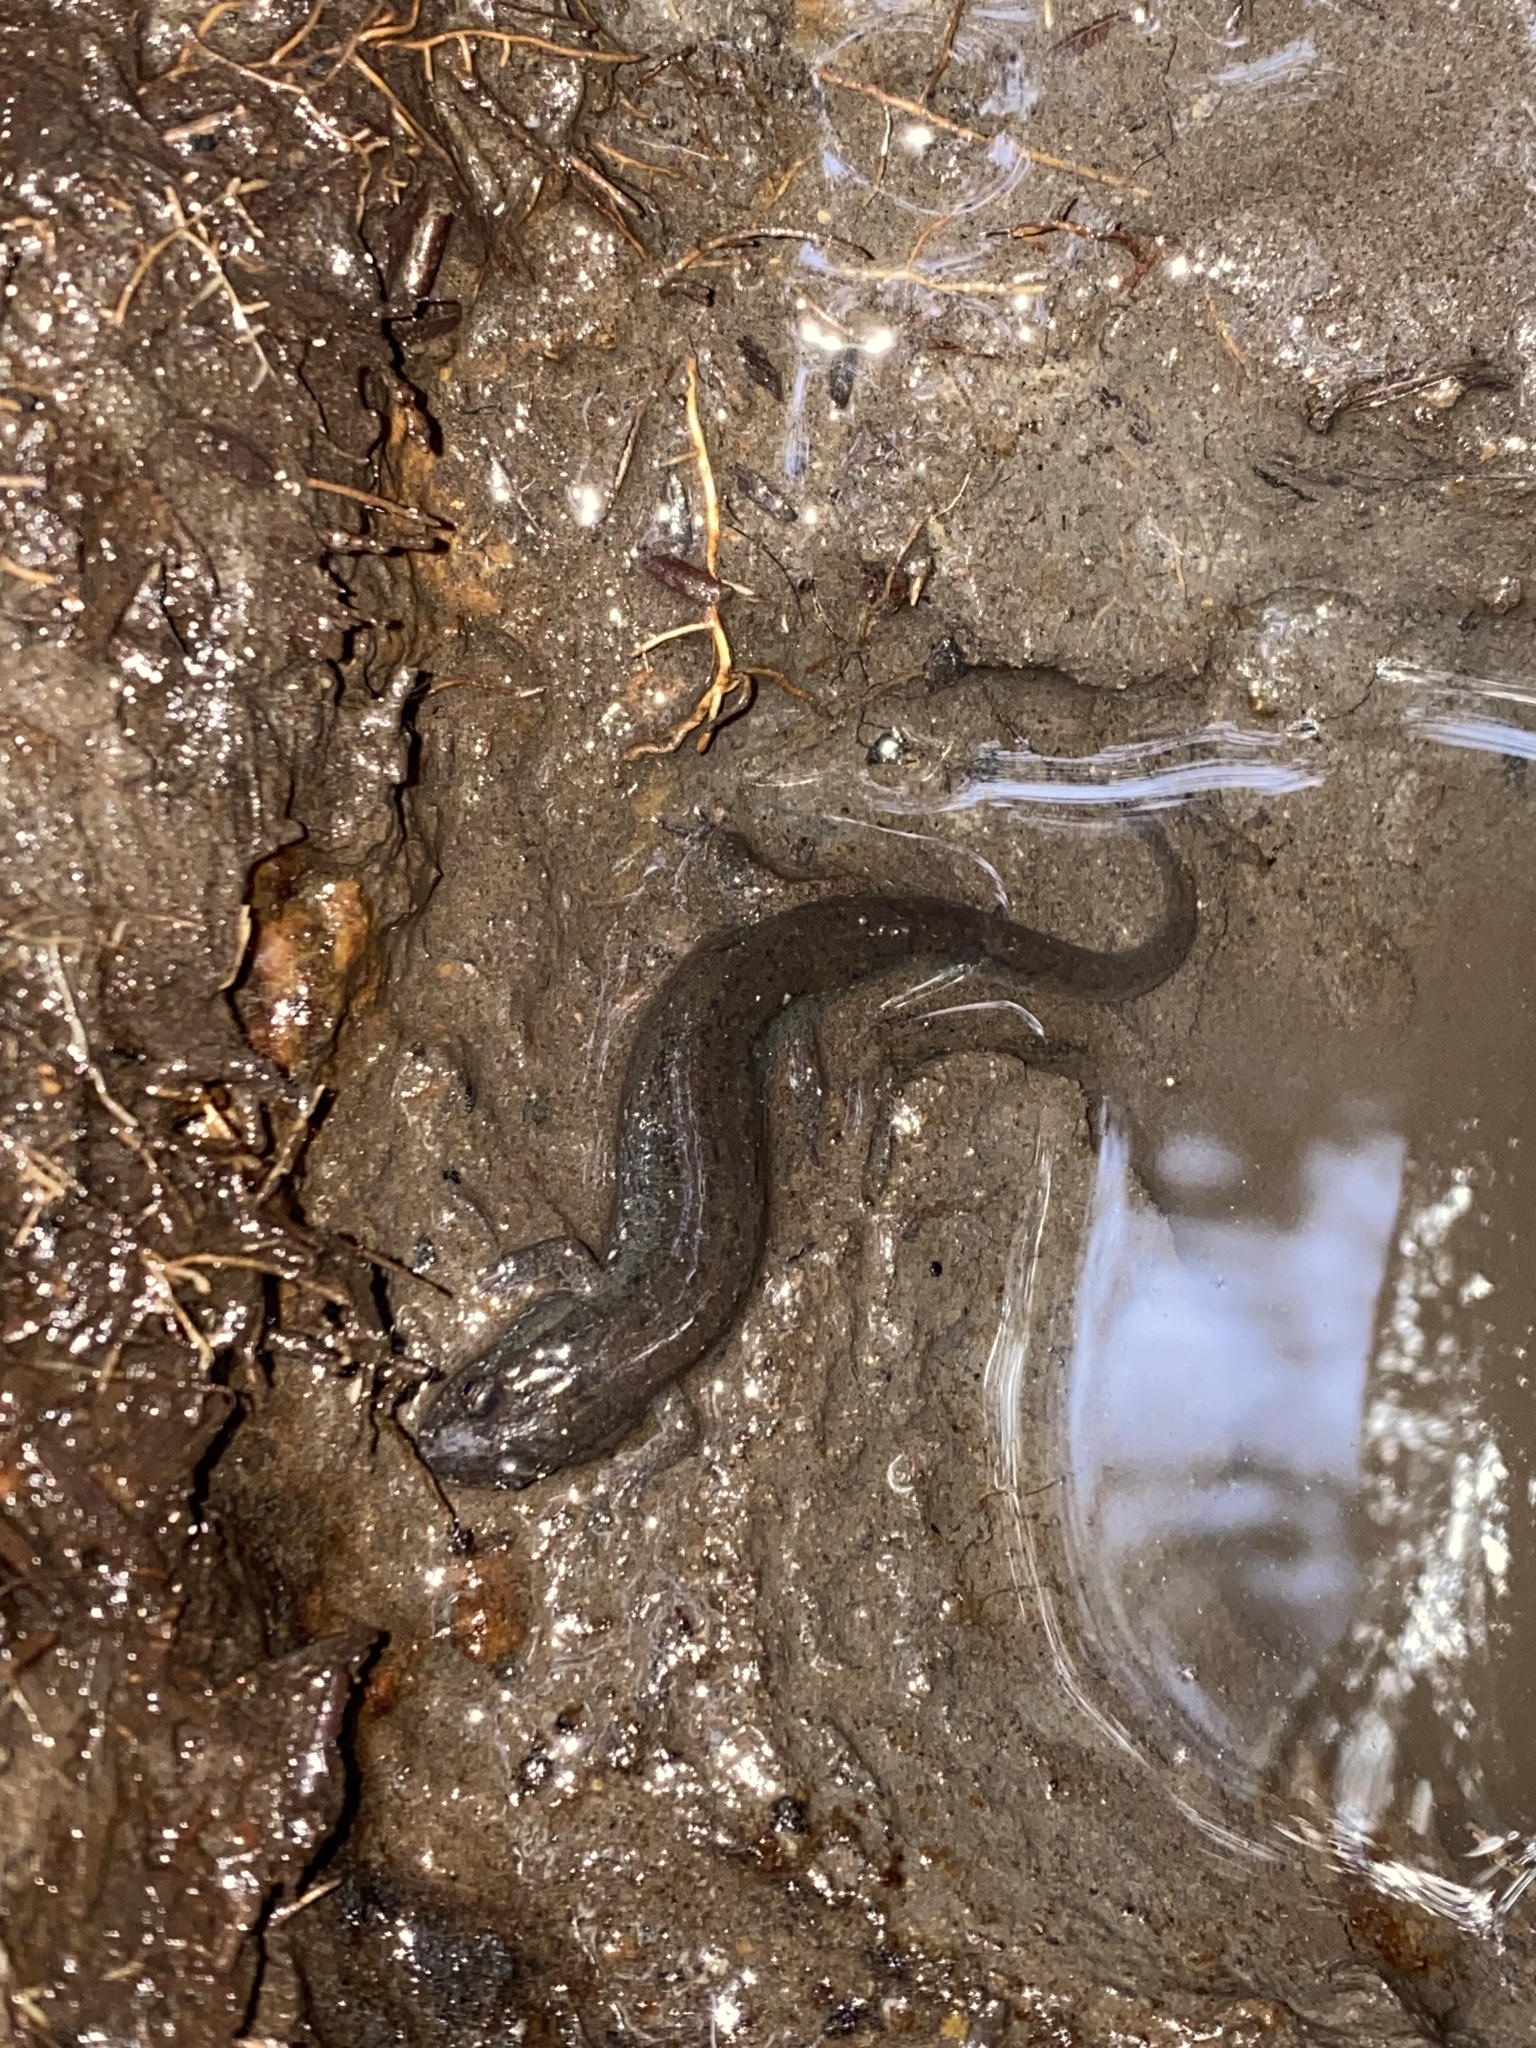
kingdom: Animalia
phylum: Chordata
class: Amphibia
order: Caudata
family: Plethodontidae
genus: Desmognathus
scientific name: Desmognathus fuscus
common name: Northern dusky salamander
